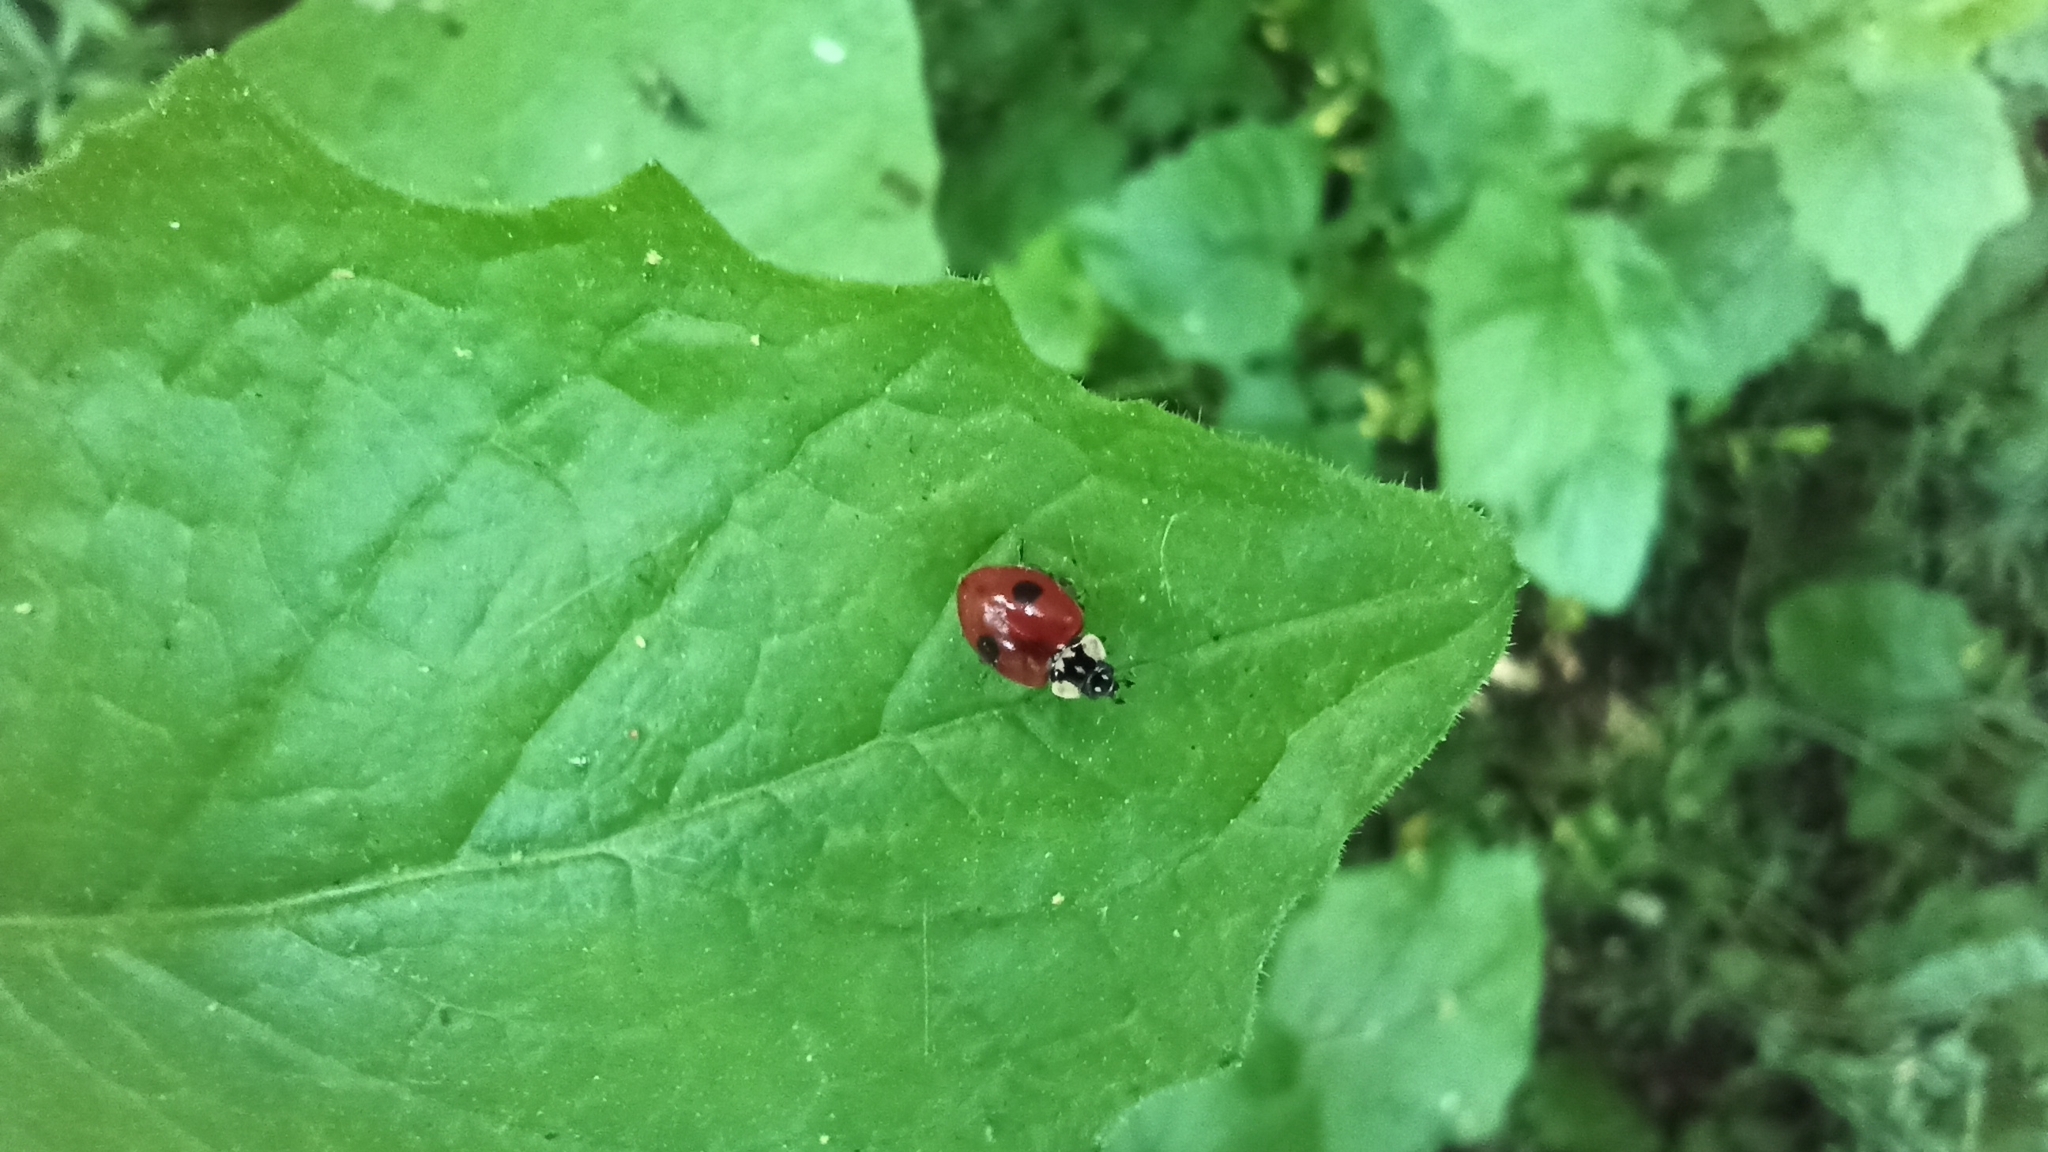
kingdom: Animalia
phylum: Arthropoda
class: Insecta
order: Coleoptera
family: Coccinellidae
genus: Adalia
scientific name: Adalia bipunctata
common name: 2-spot ladybird
